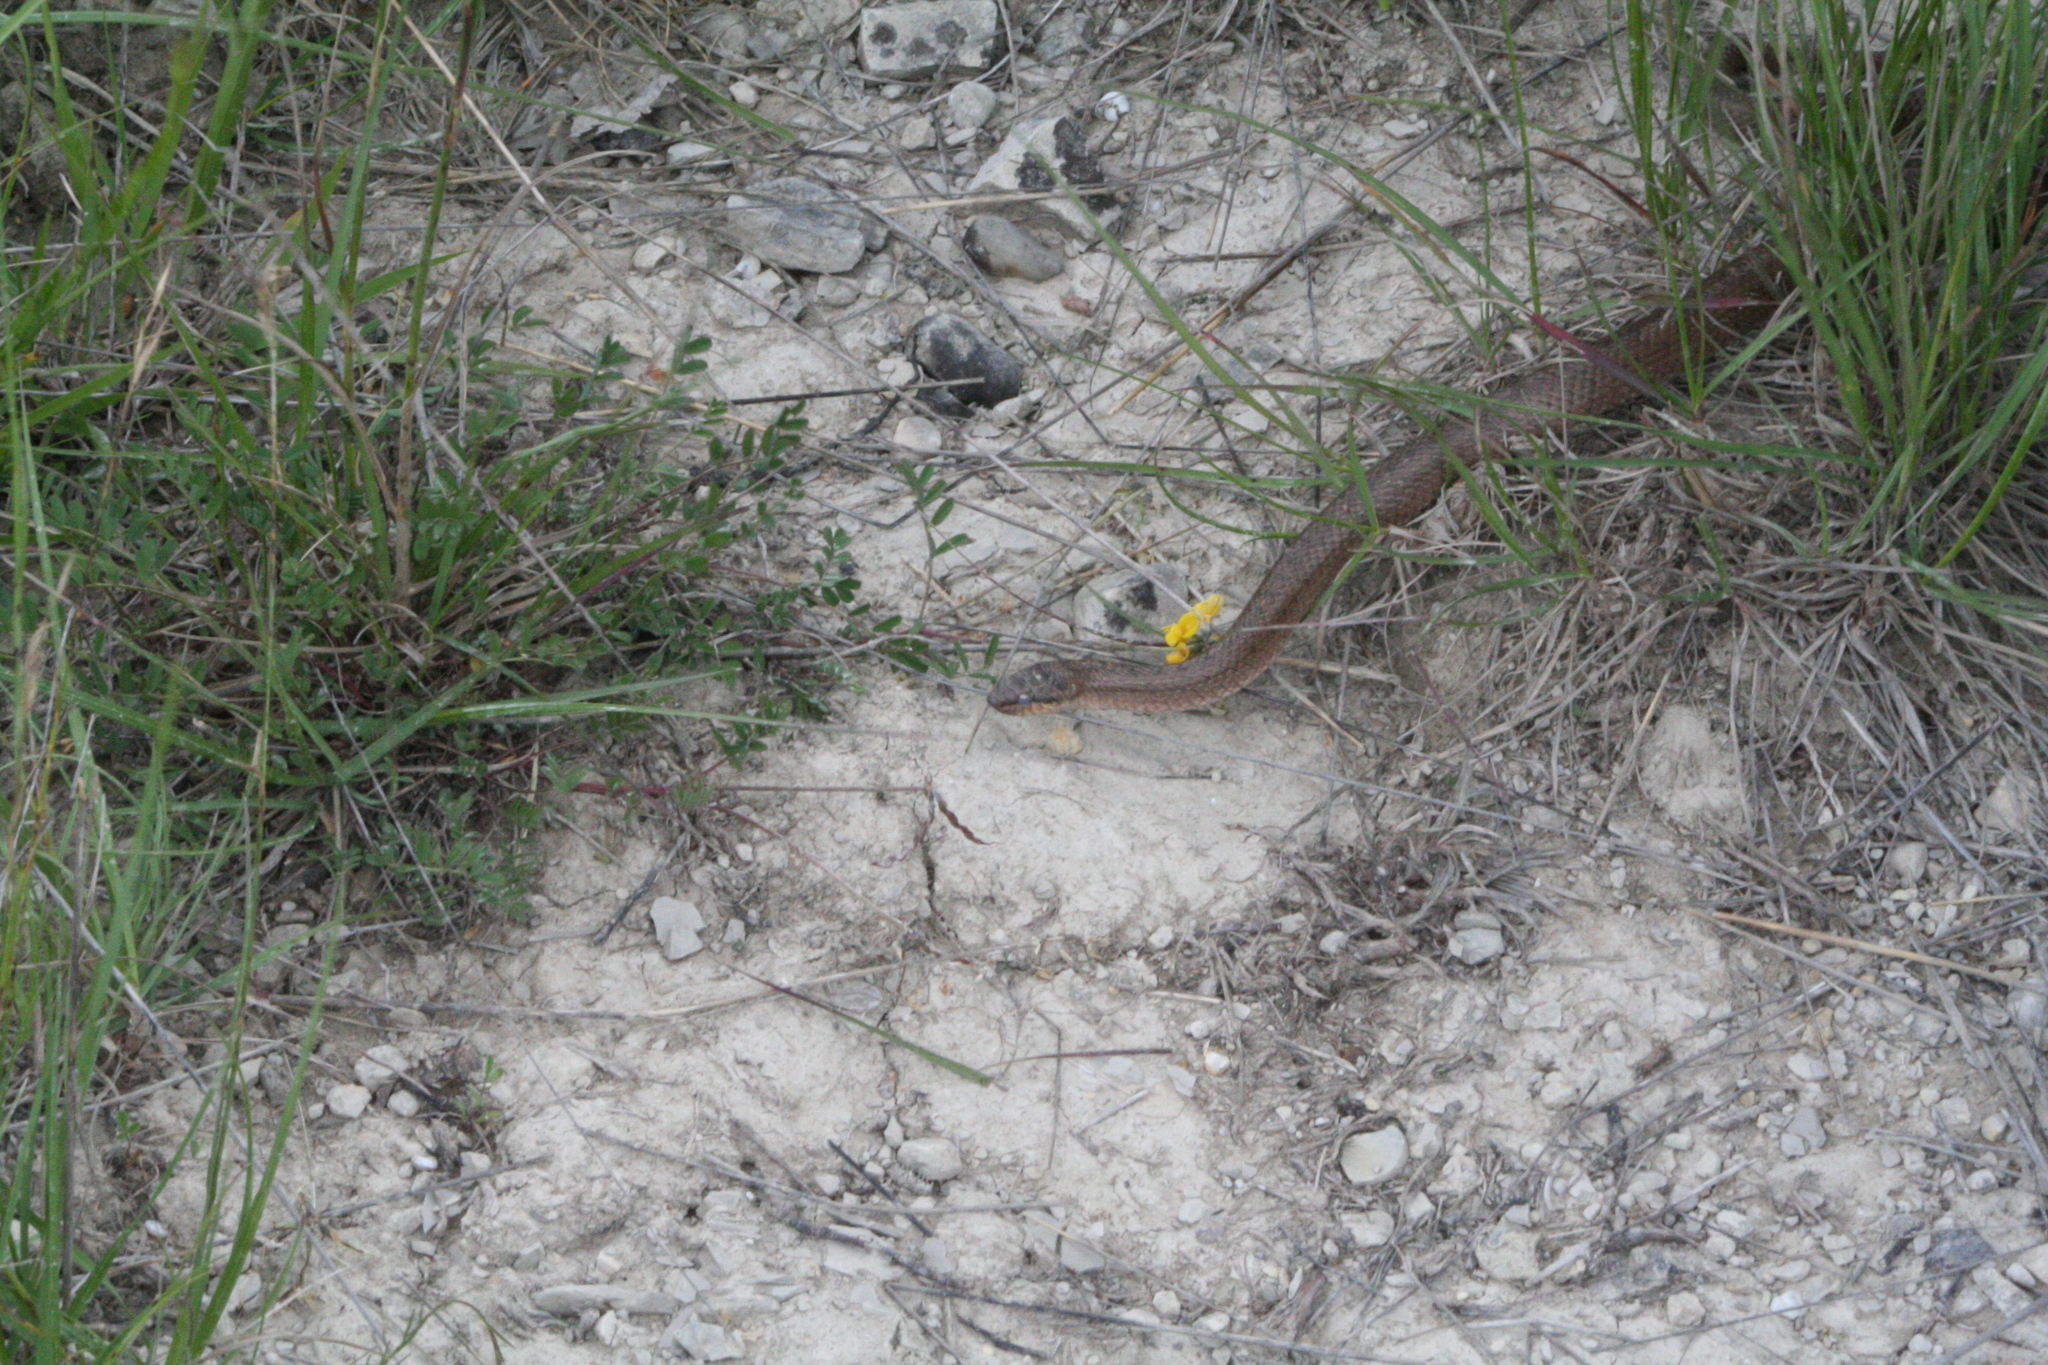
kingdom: Animalia
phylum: Chordata
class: Squamata
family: Colubridae
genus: Coronella
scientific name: Coronella austriaca
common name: Smooth snake
